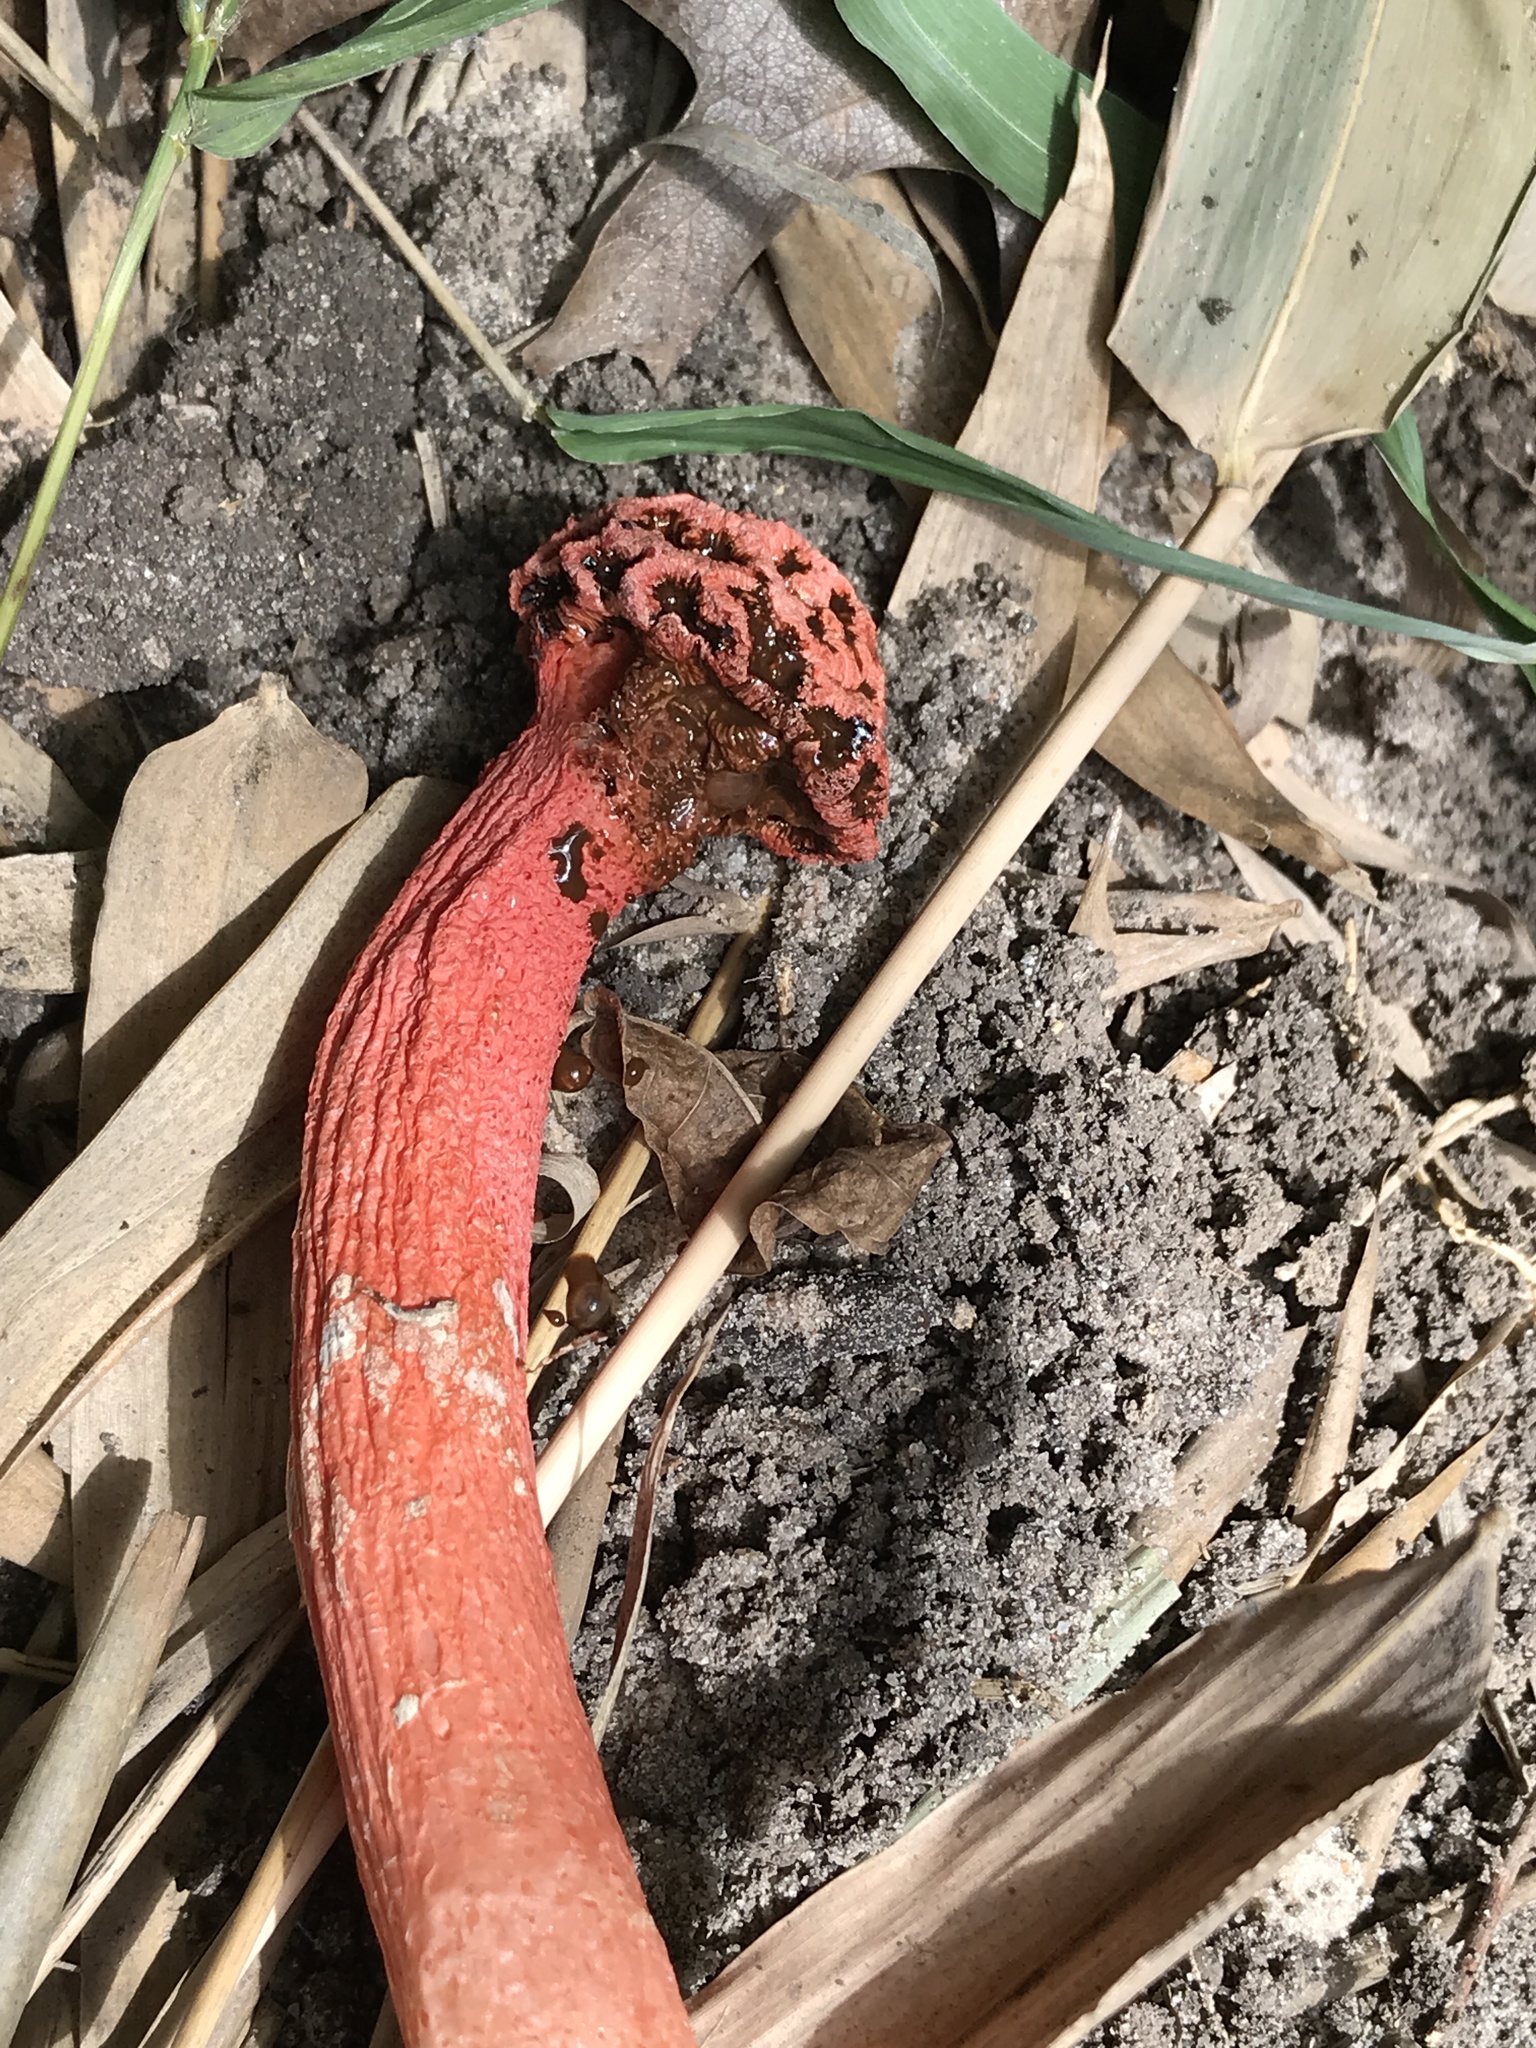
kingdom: Fungi
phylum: Basidiomycota
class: Agaricomycetes
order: Phallales
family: Phallaceae
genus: Lysurus
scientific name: Lysurus periphragmoides
